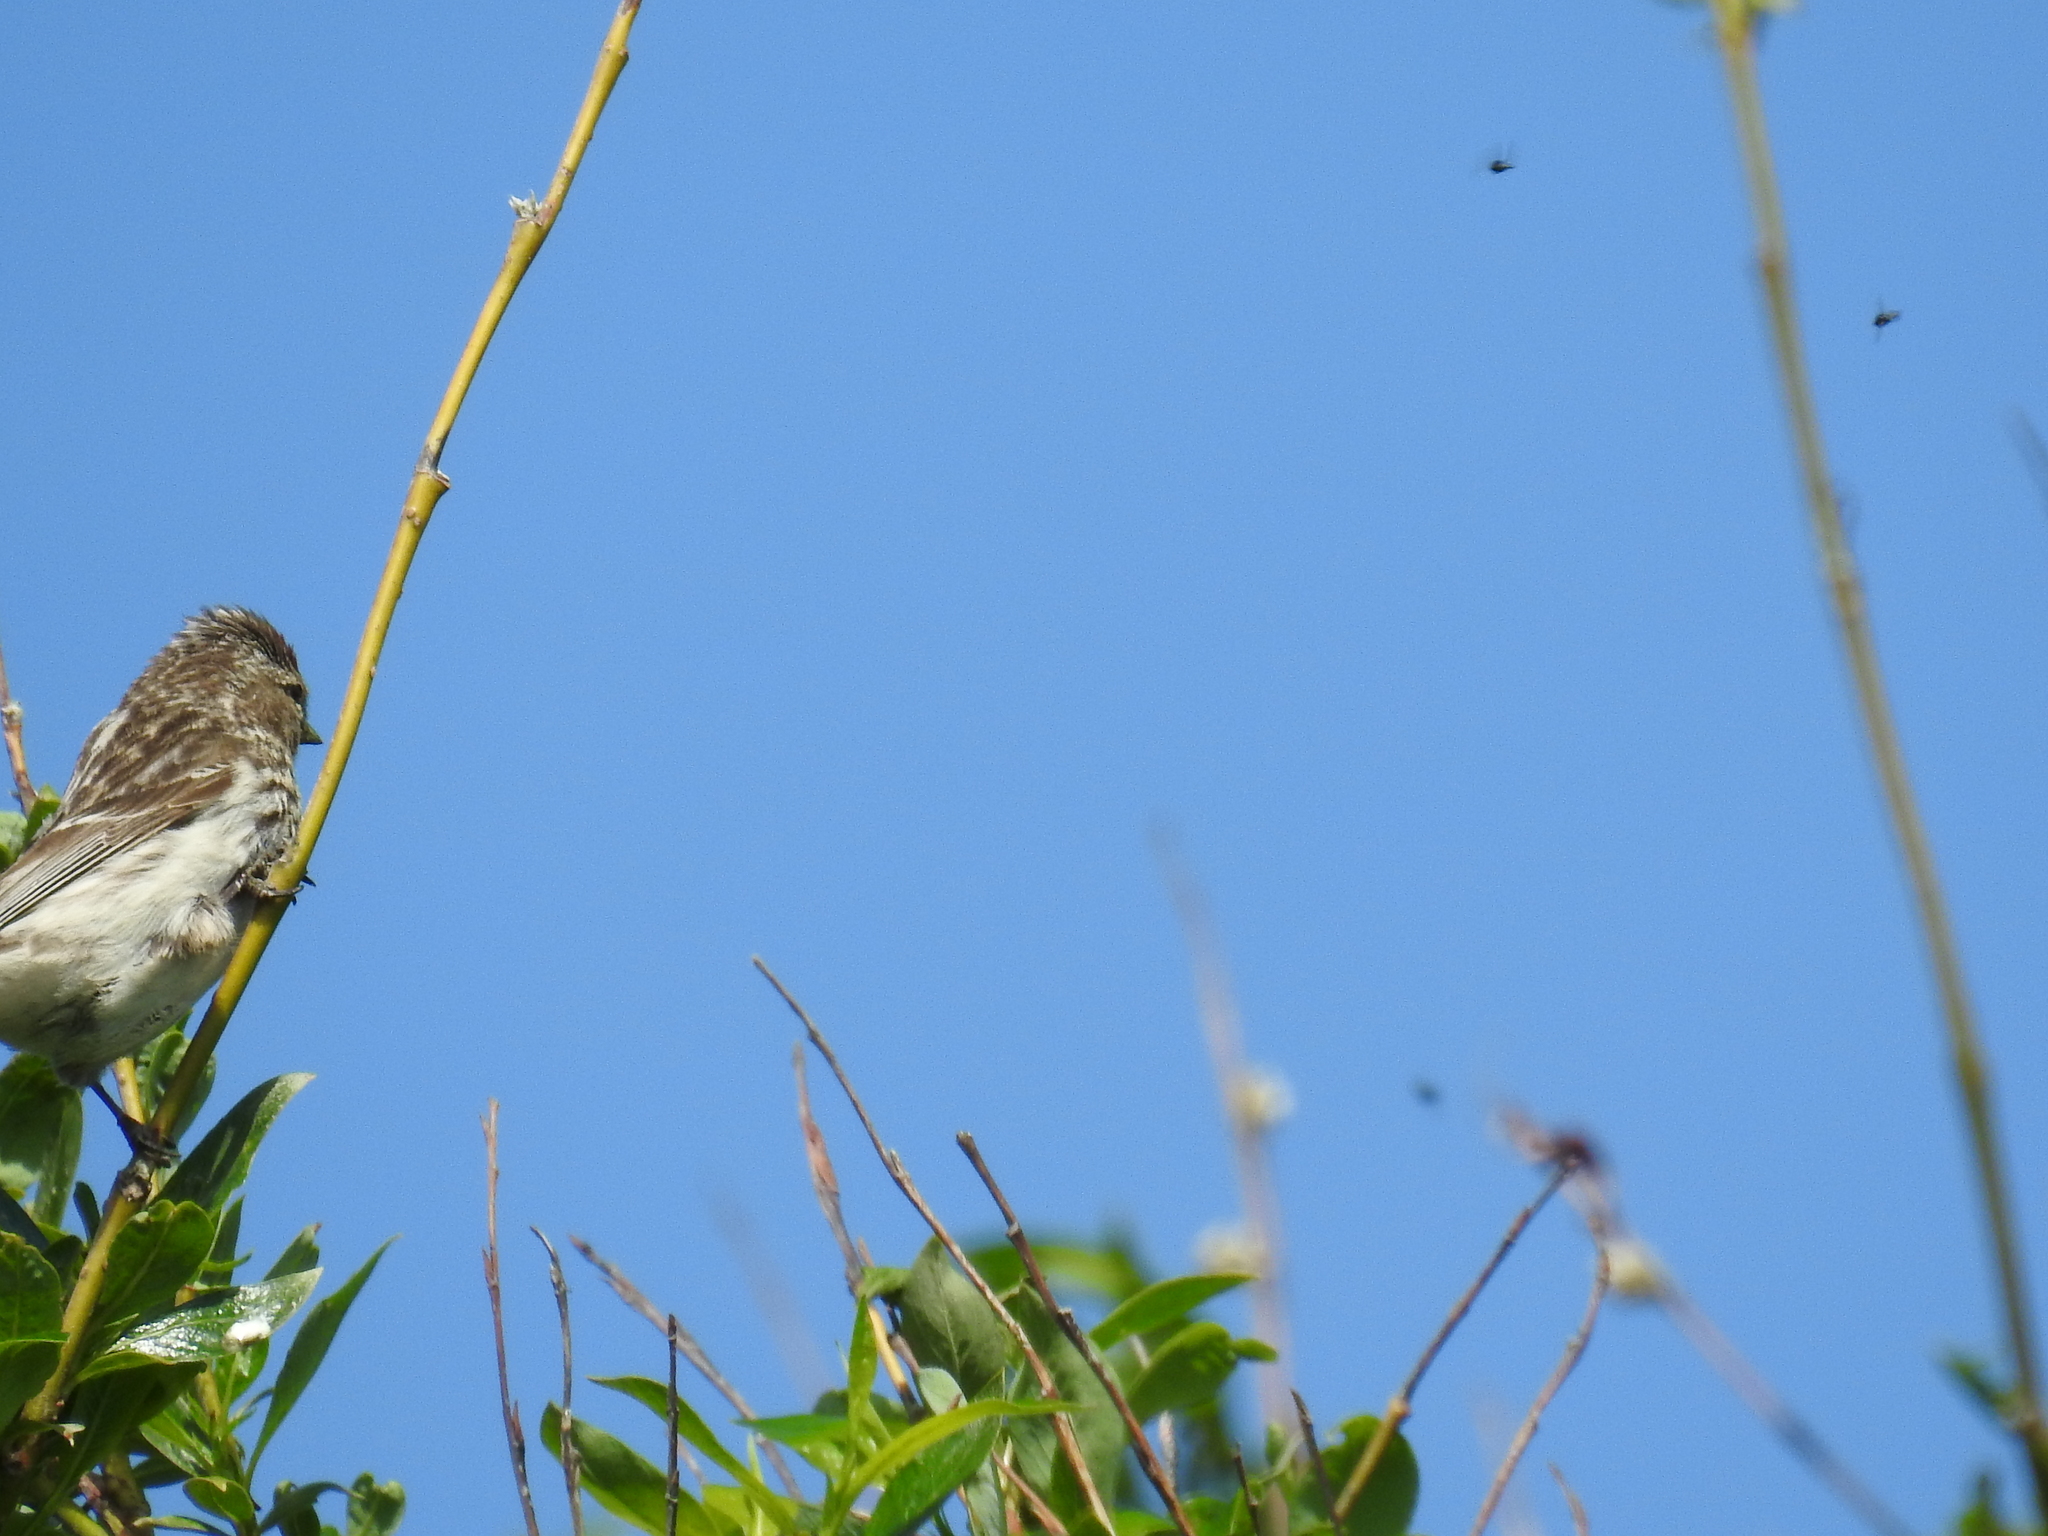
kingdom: Animalia
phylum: Chordata
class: Aves
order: Passeriformes
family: Fringillidae
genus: Acanthis
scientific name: Acanthis flammea
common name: Common redpoll
